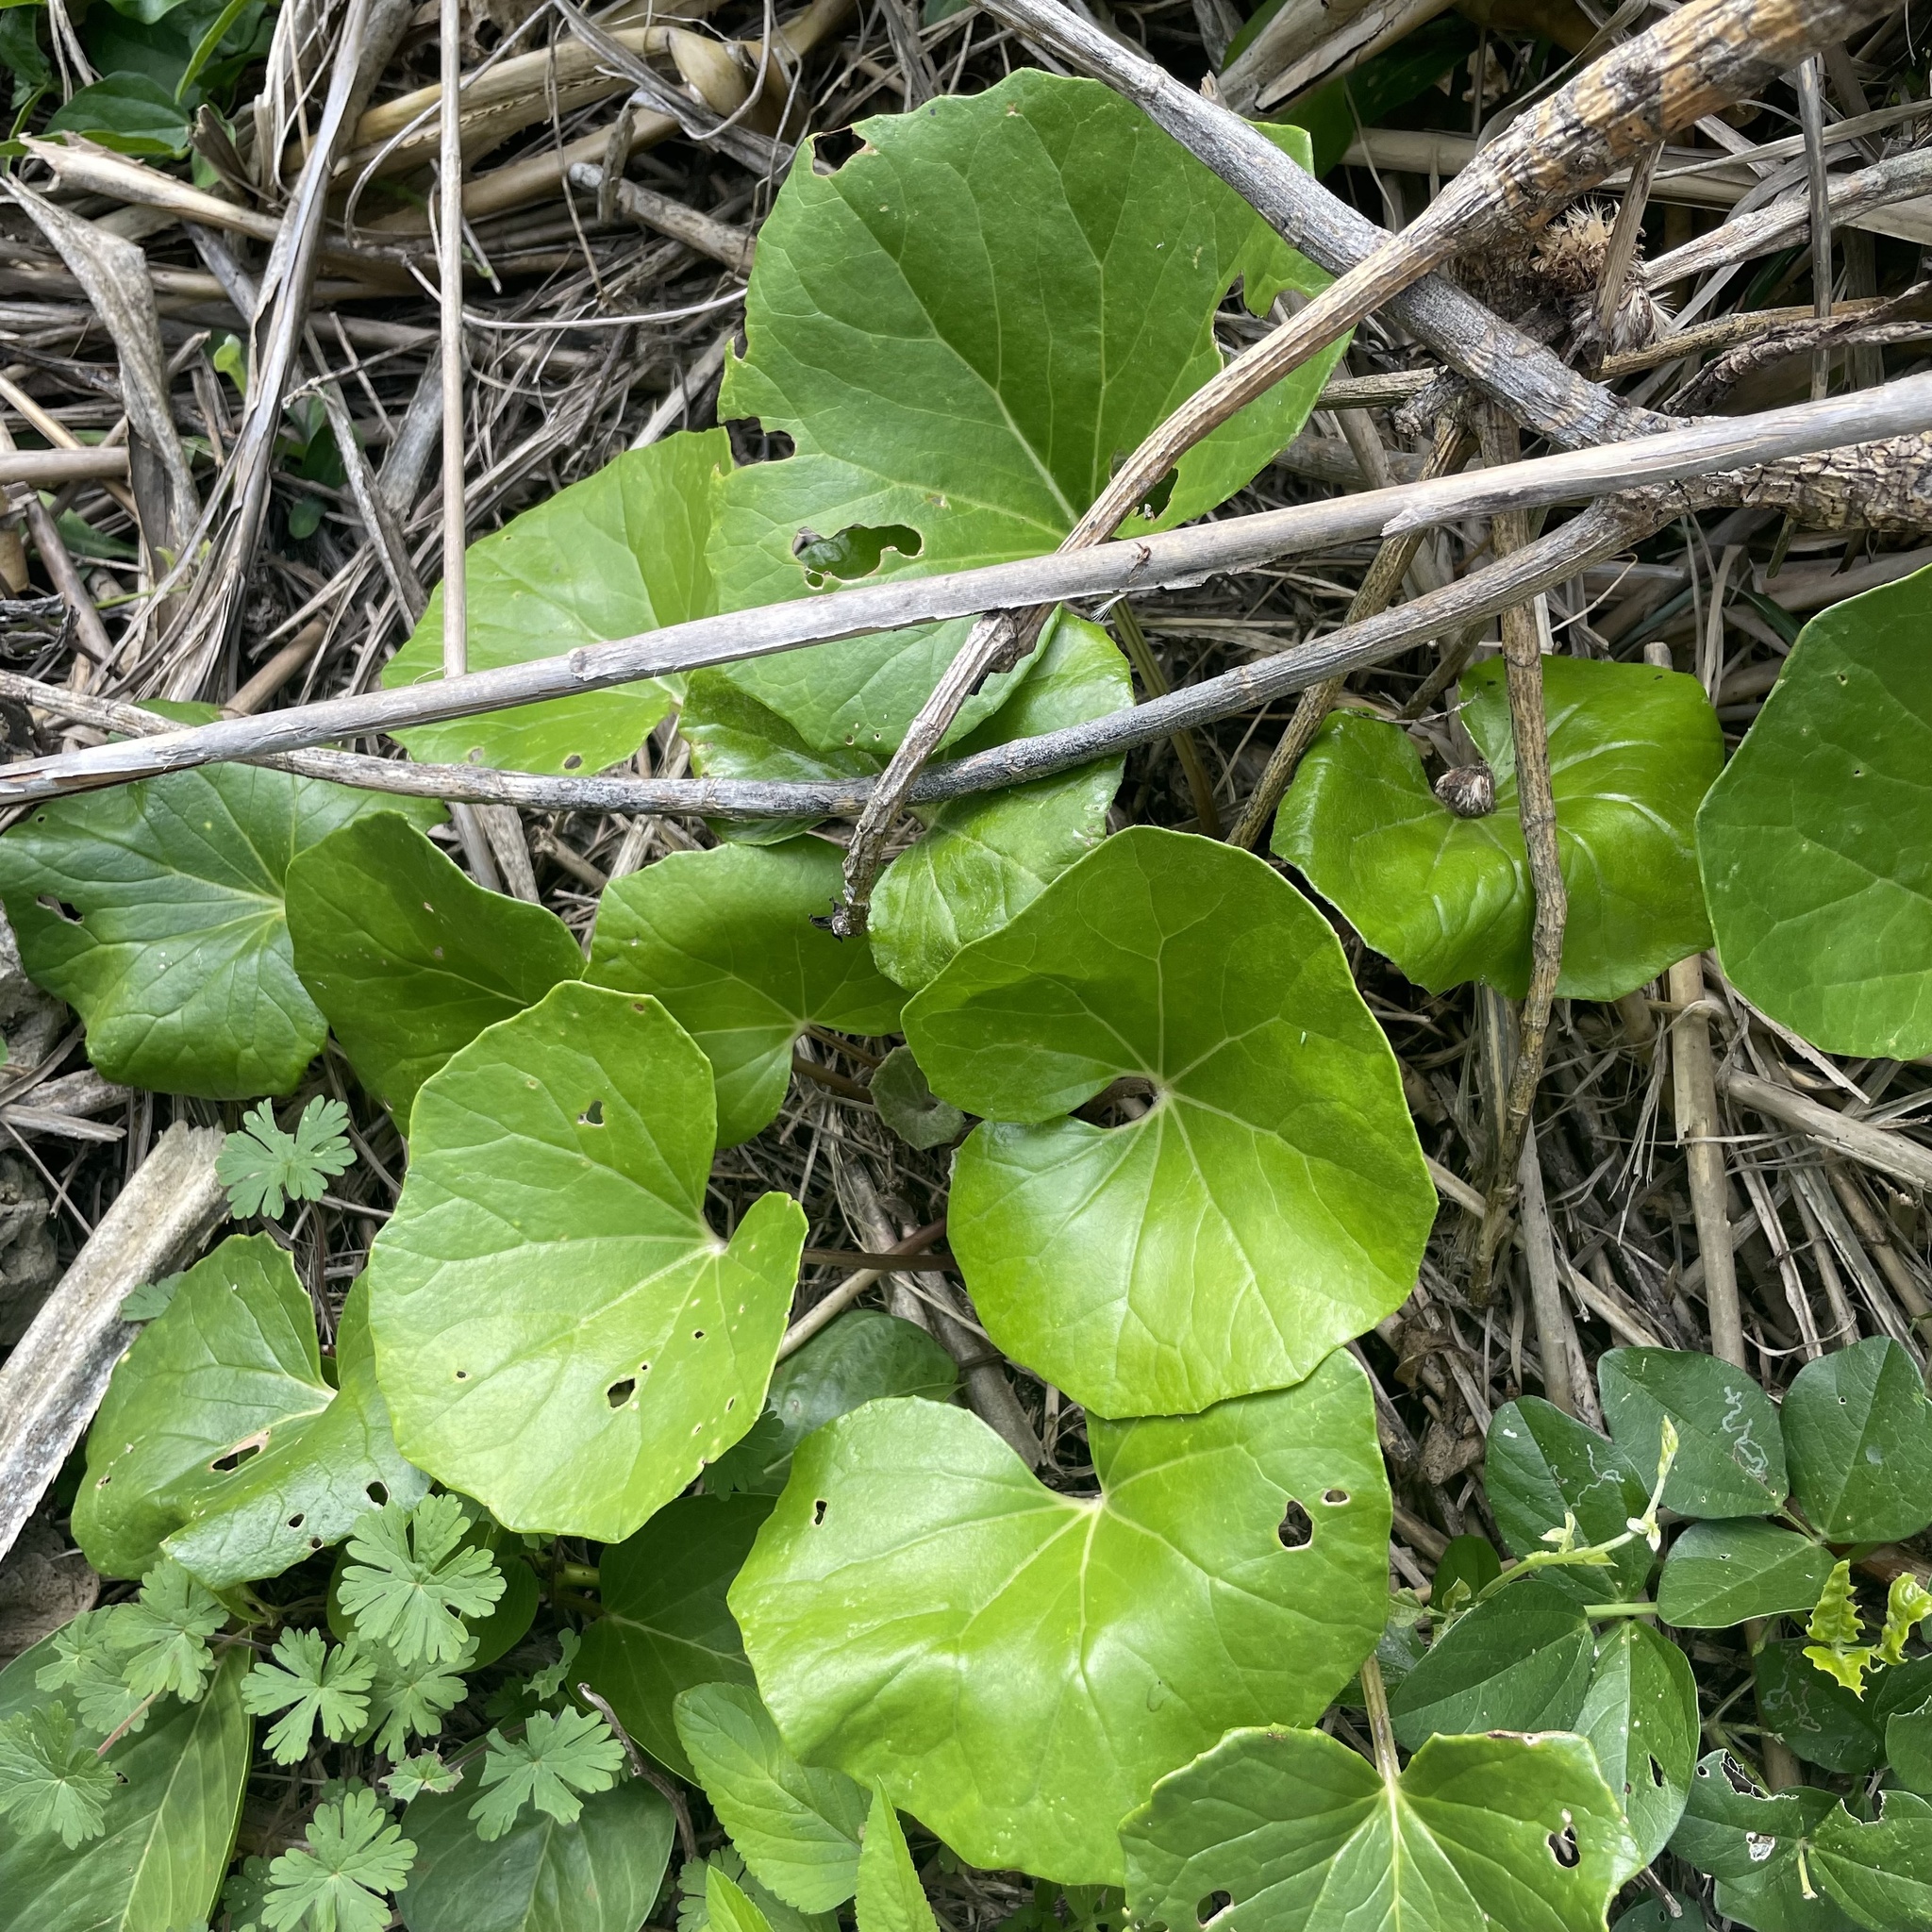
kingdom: Plantae
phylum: Tracheophyta
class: Magnoliopsida
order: Asterales
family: Asteraceae
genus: Farfugium
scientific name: Farfugium japonicum
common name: Leopardplant
